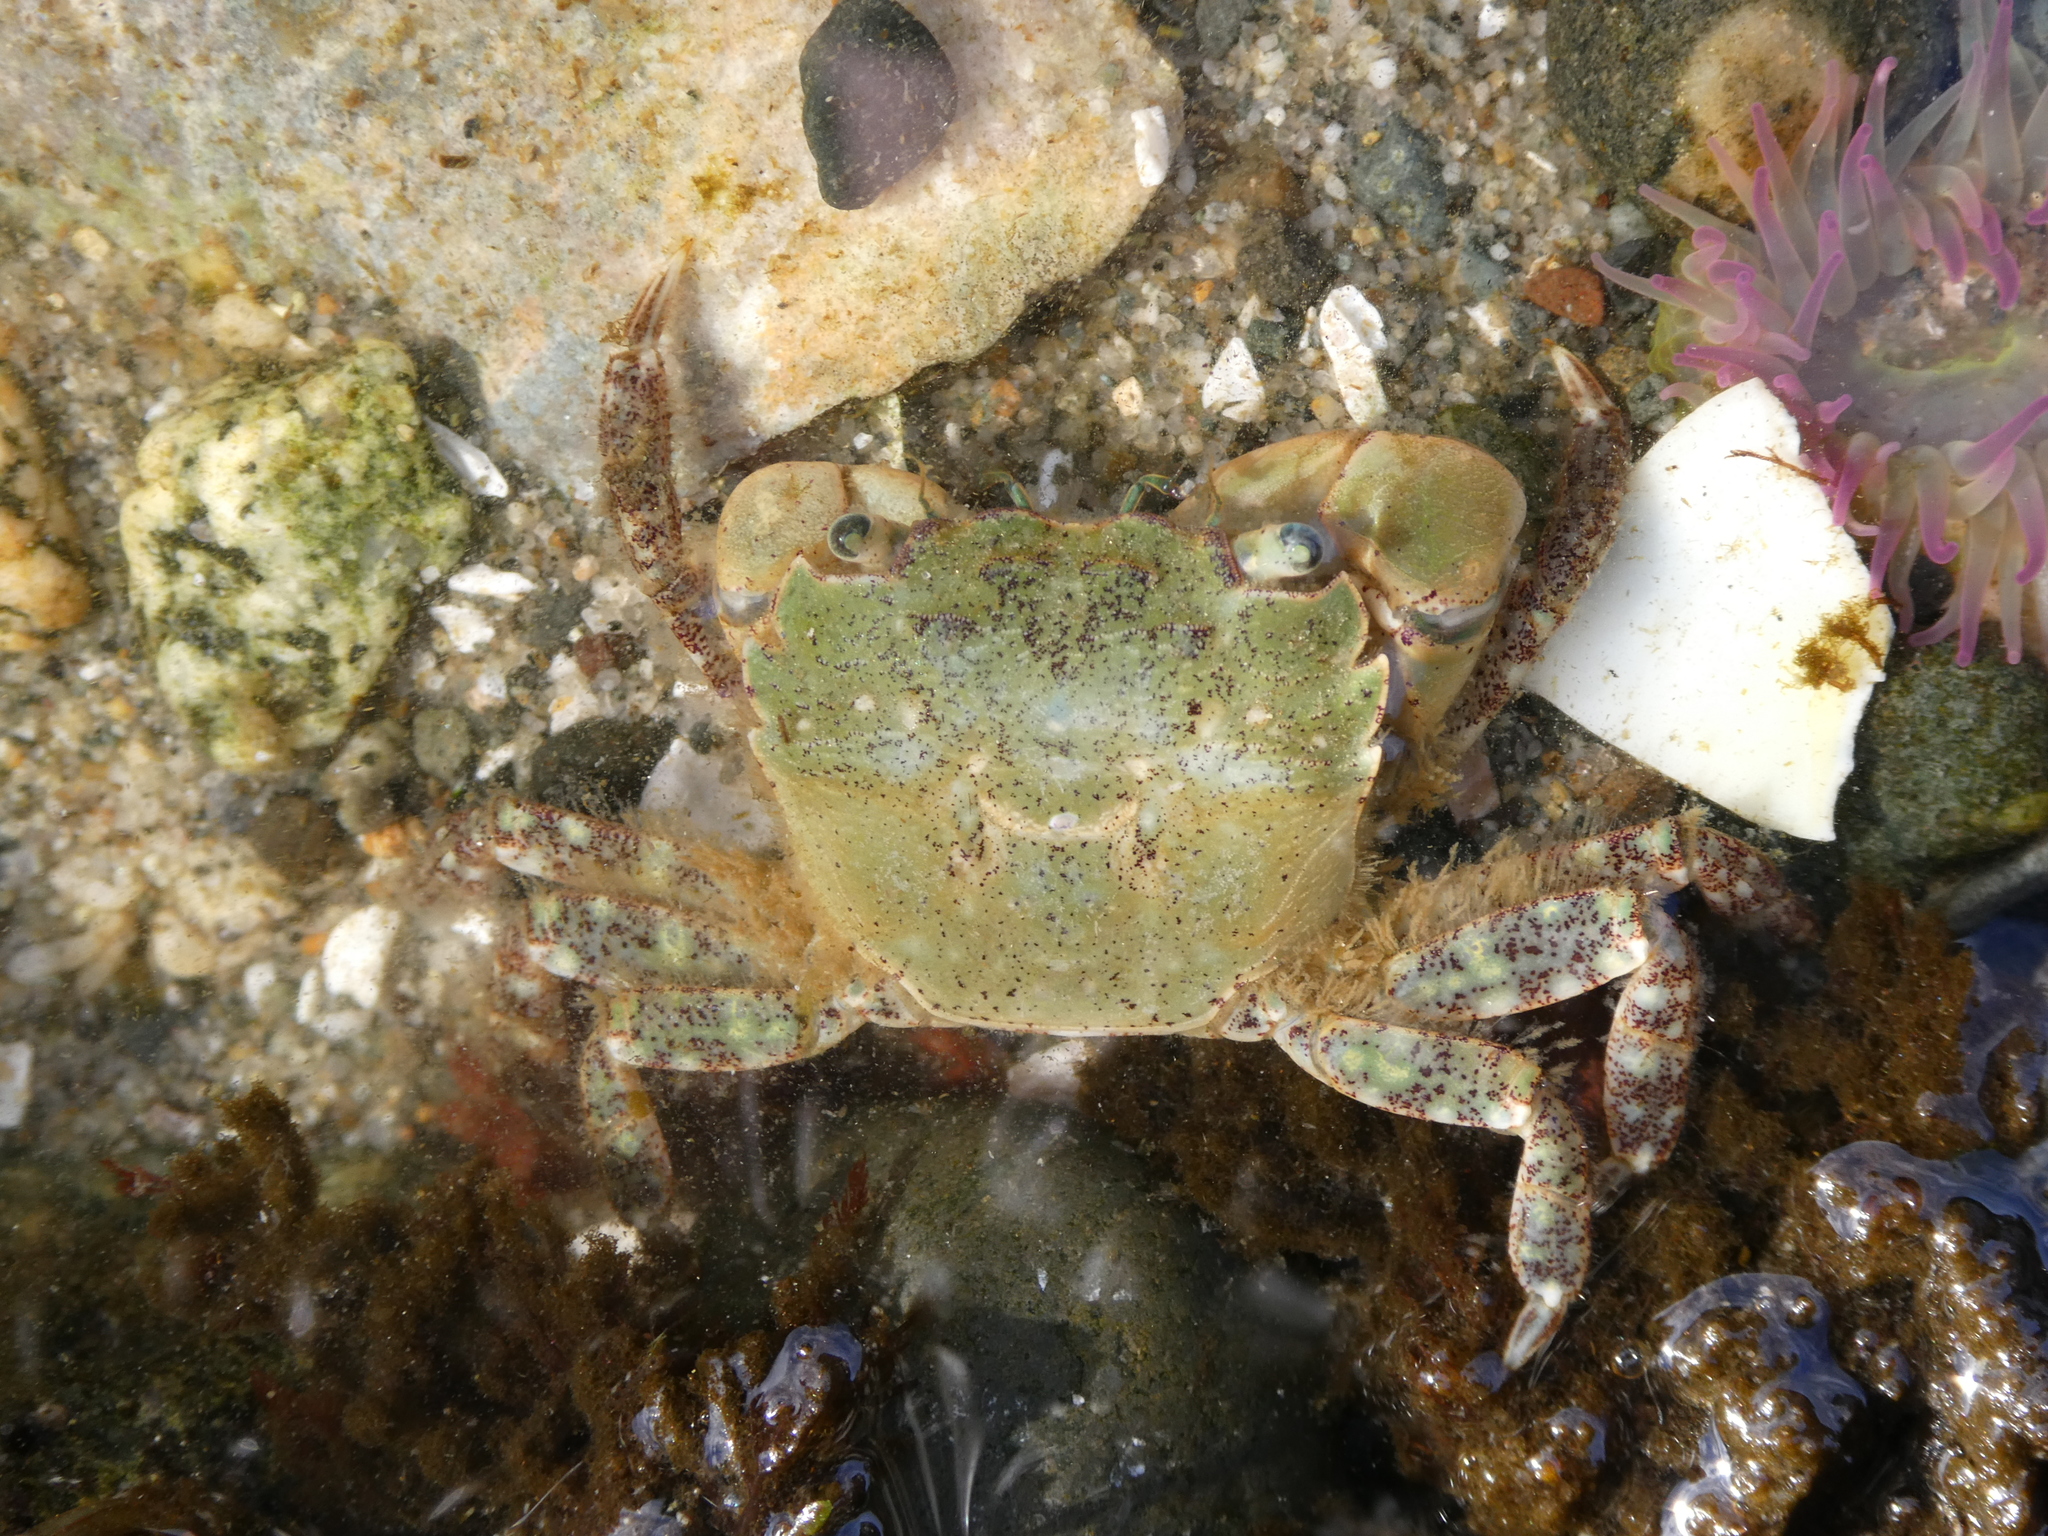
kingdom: Animalia
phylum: Arthropoda
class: Malacostraca
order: Decapoda
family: Varunidae
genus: Hemigrapsus
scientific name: Hemigrapsus oregonensis
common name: Yellow shore crab
